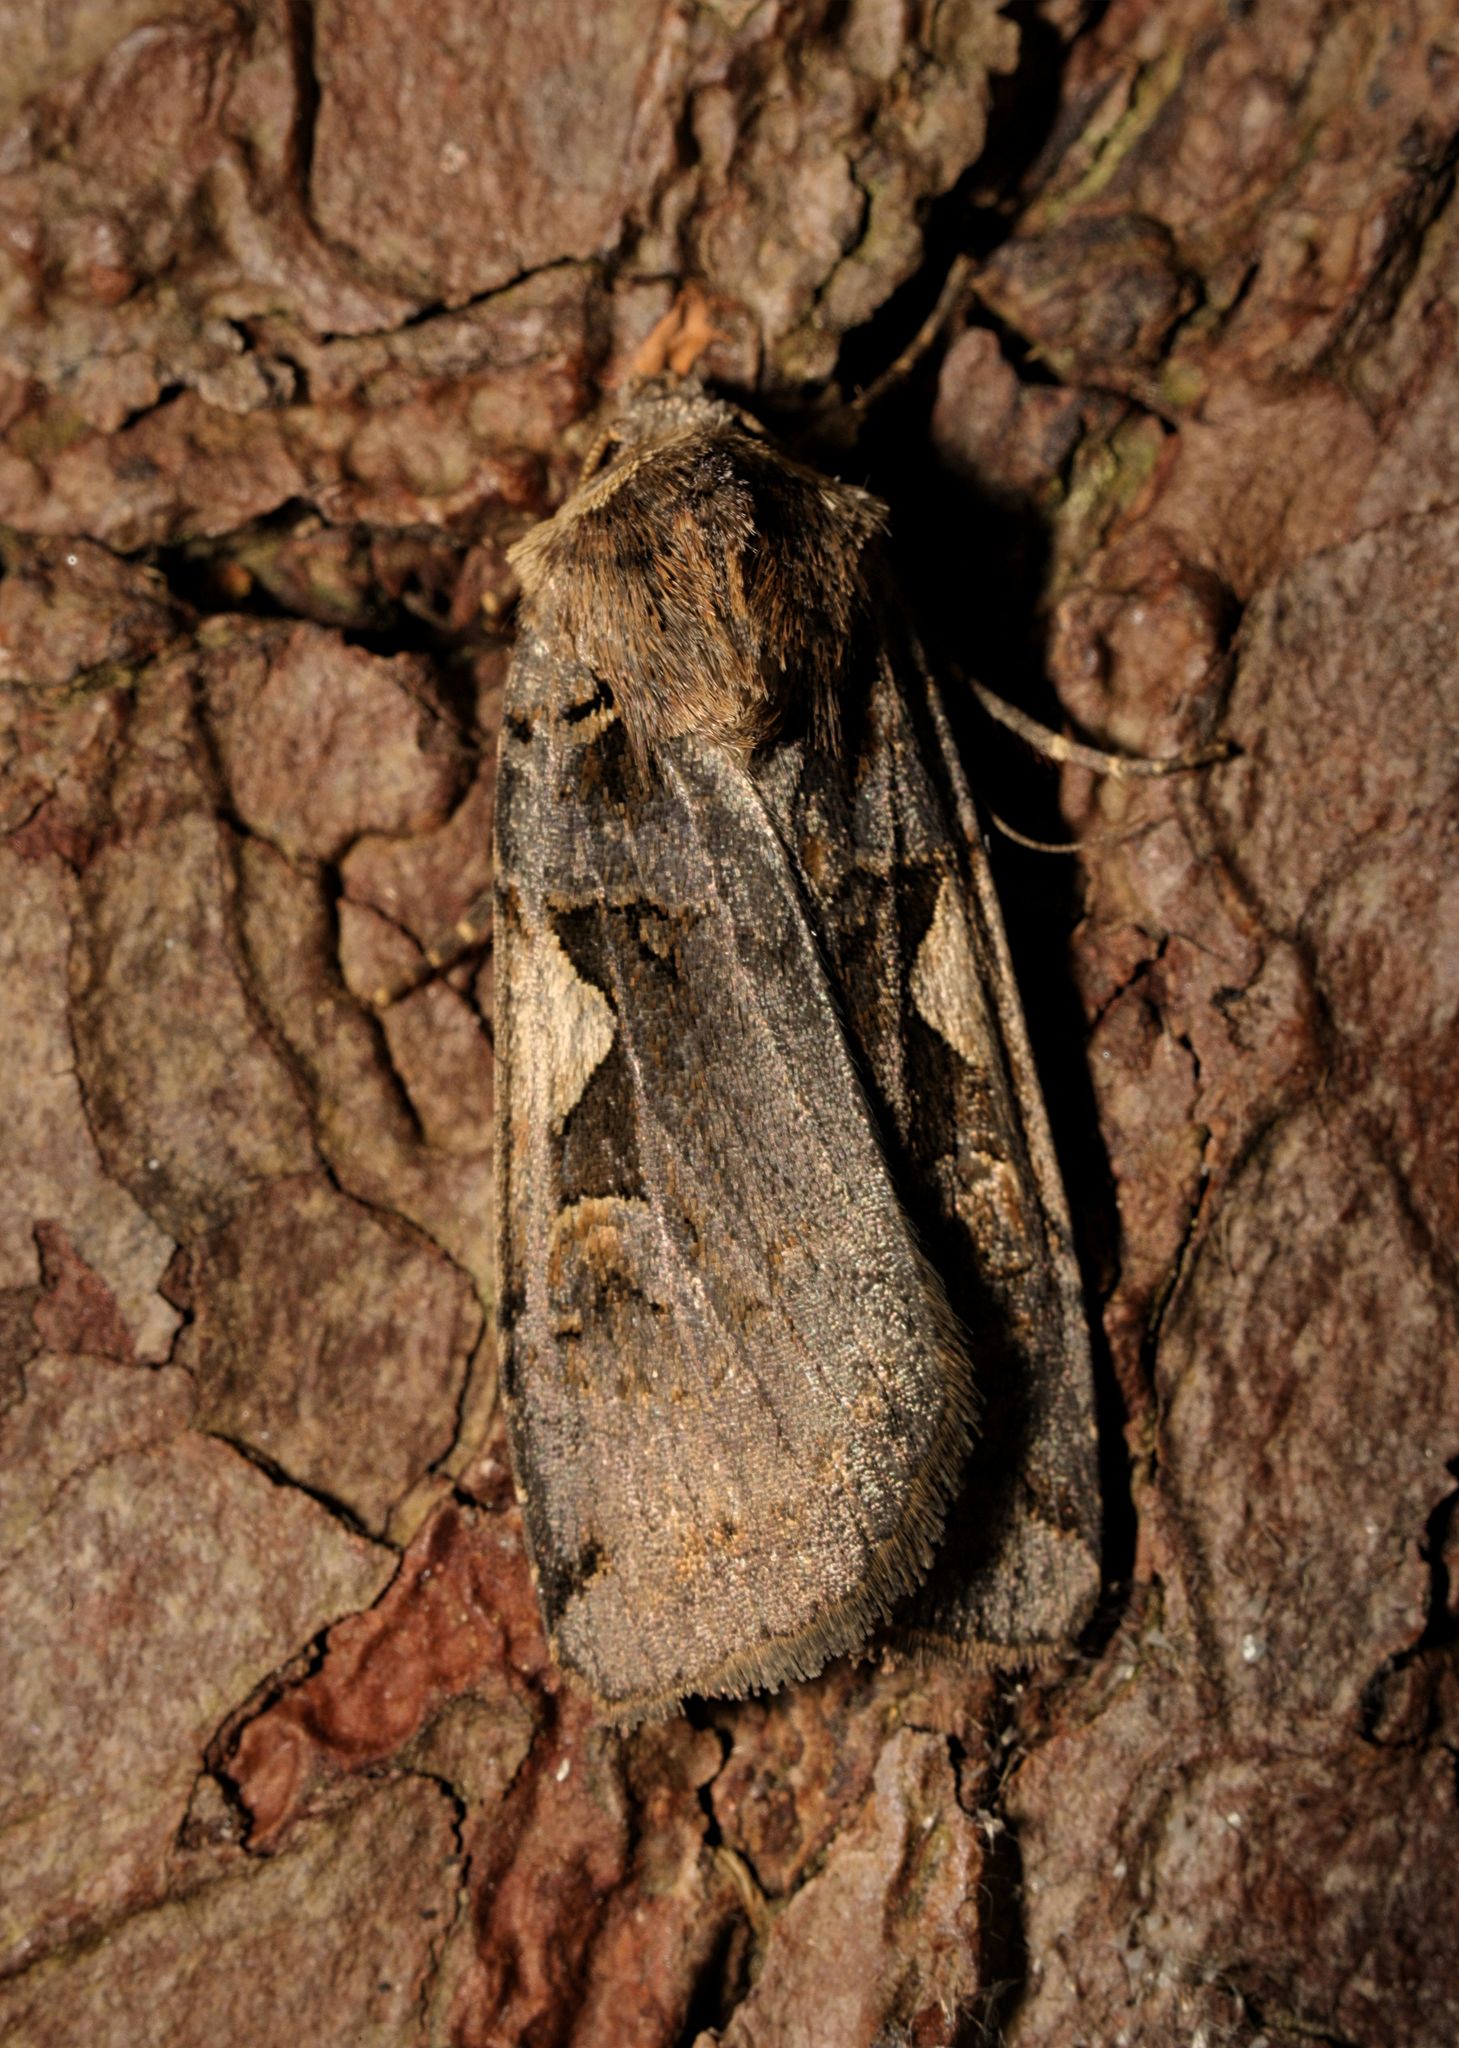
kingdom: Animalia
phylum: Arthropoda
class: Insecta
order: Lepidoptera
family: Noctuidae
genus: Xestia
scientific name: Xestia c-nigrum
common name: Setaceous hebrew character
